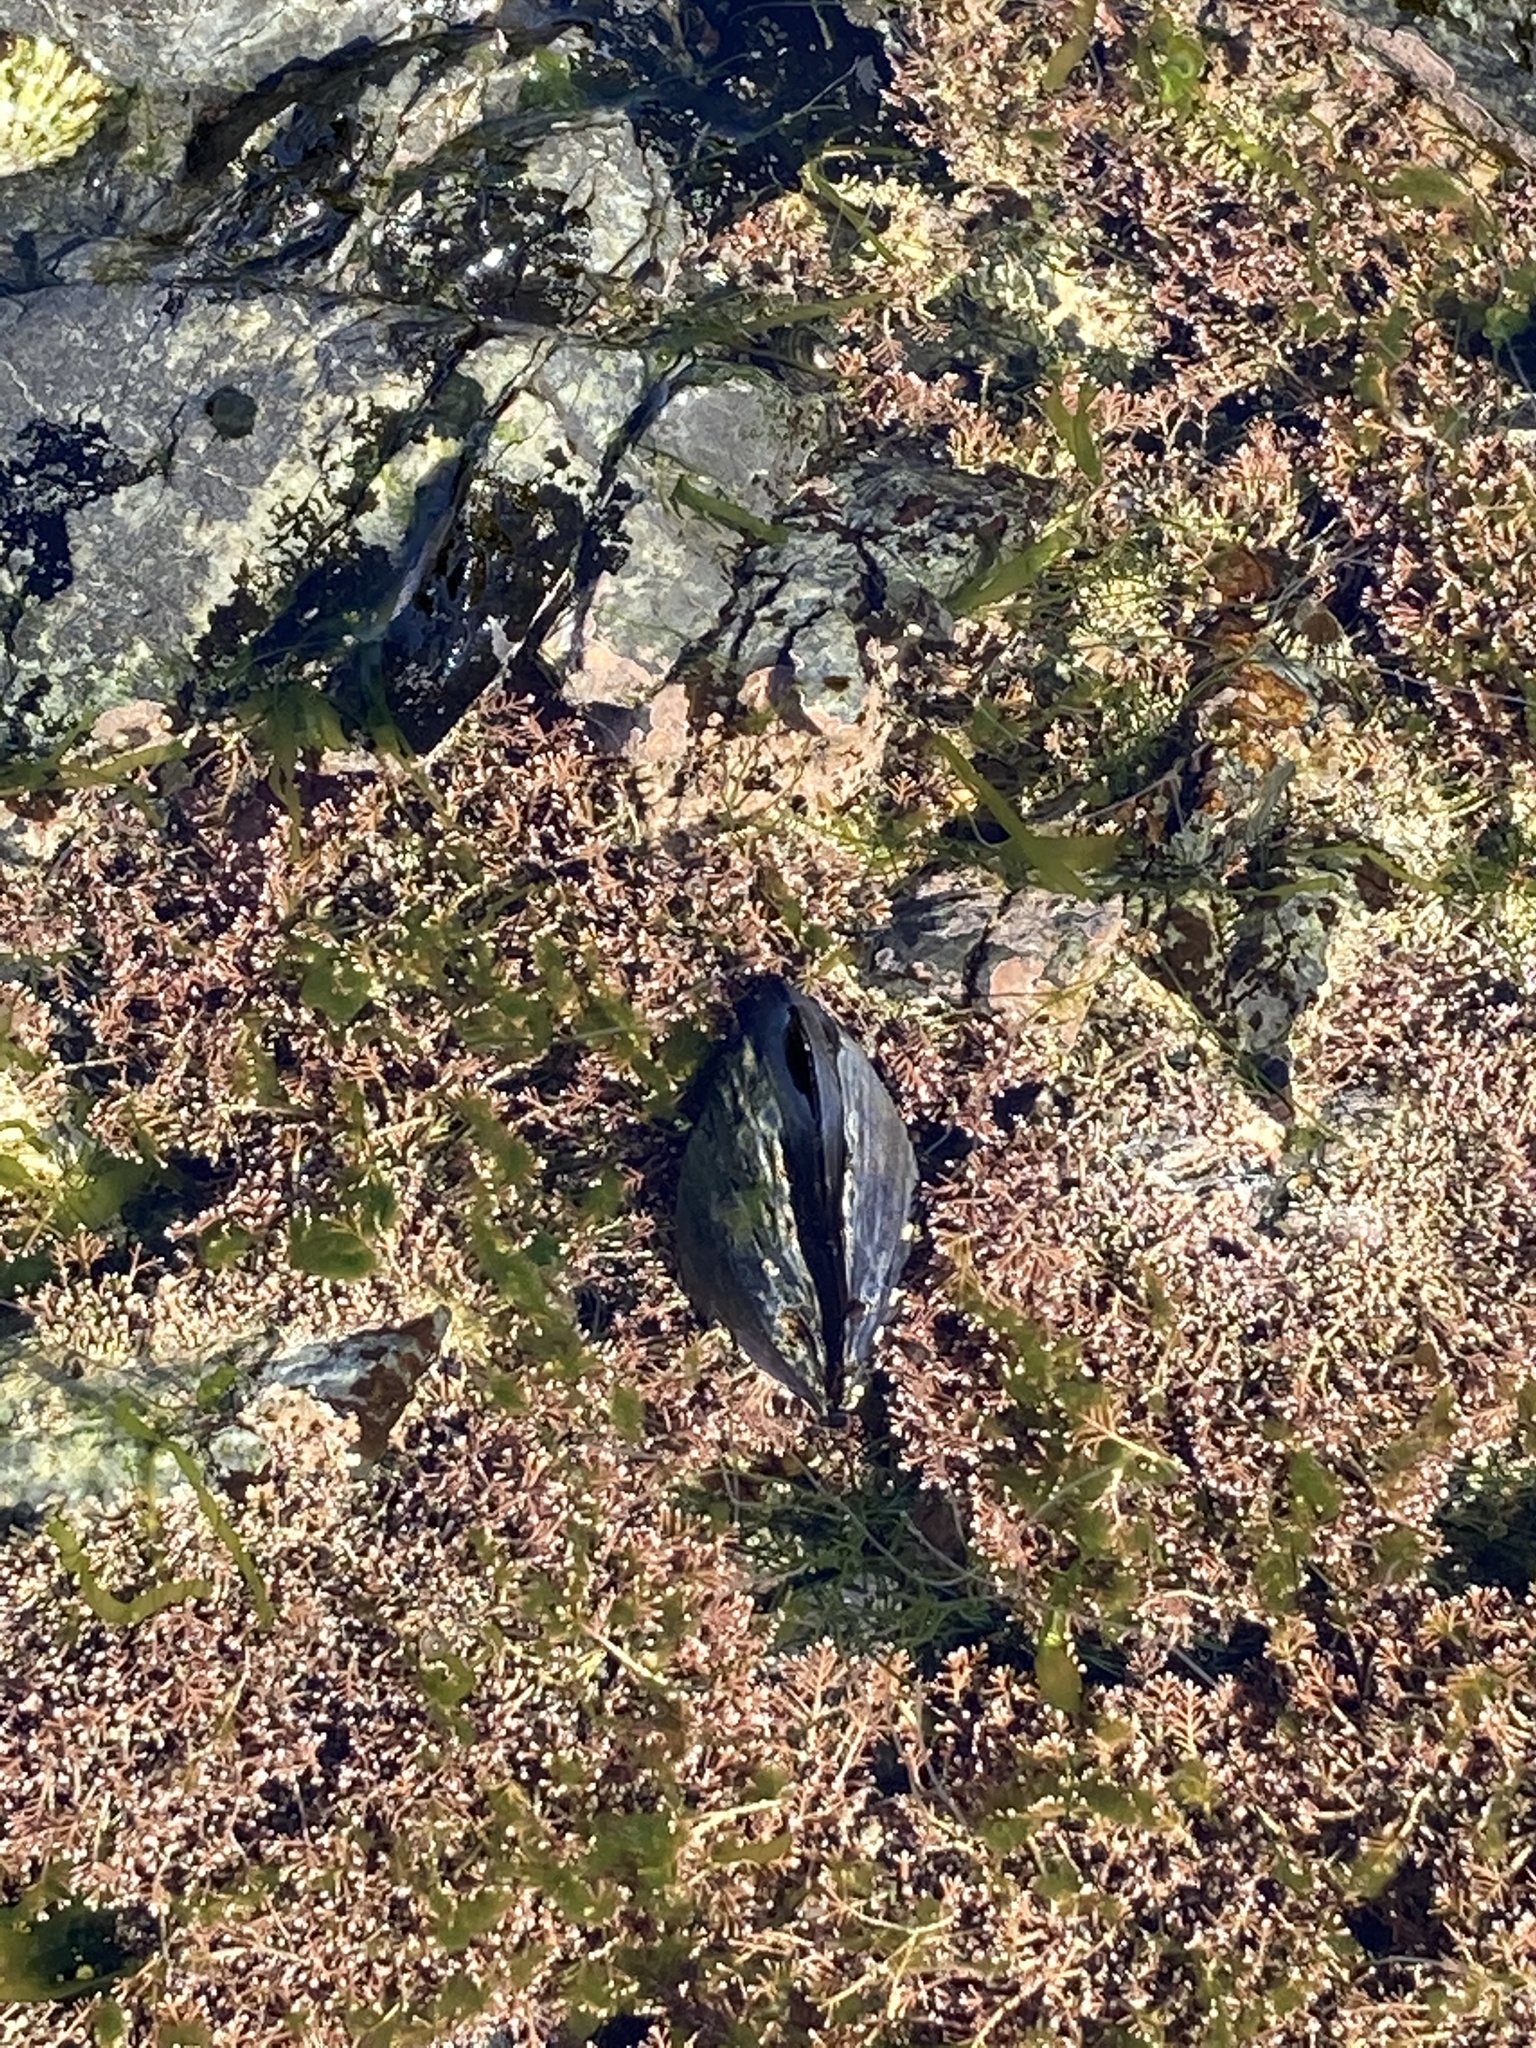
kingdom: Animalia
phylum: Mollusca
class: Bivalvia
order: Mytilida
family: Mytilidae
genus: Mytilus
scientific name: Mytilus planulatus
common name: Australian mussel
